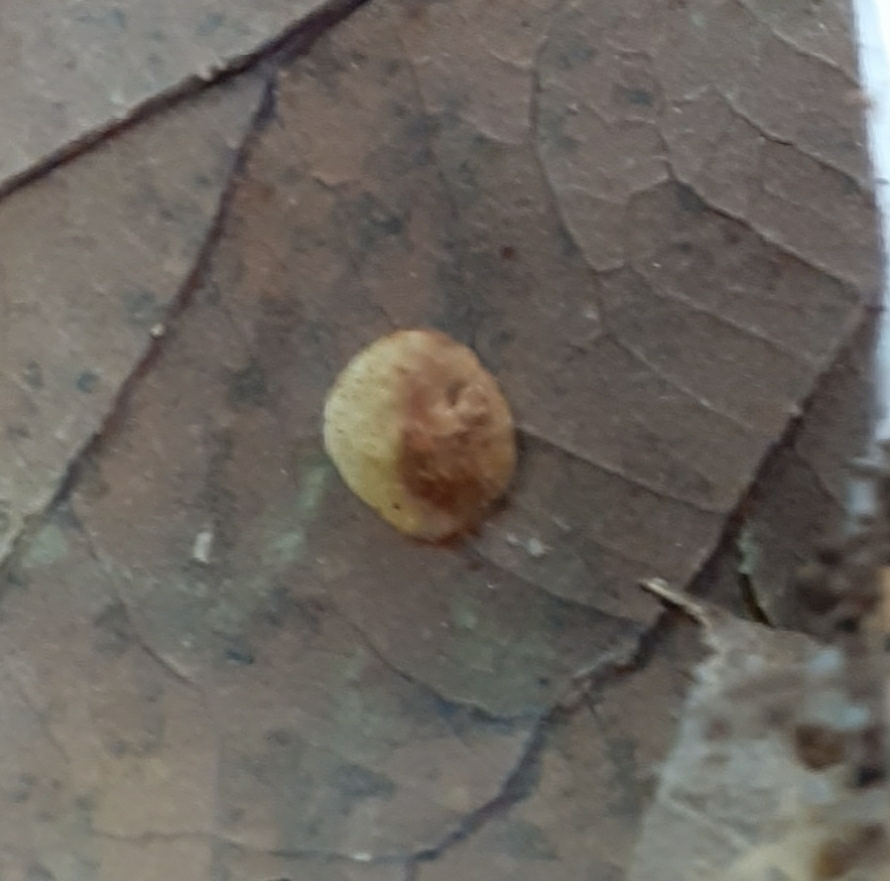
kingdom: Animalia
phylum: Arthropoda
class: Insecta
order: Hymenoptera
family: Cynipidae
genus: Neuroterus
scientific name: Neuroterus quercusbaccarum
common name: Common spangle gall
